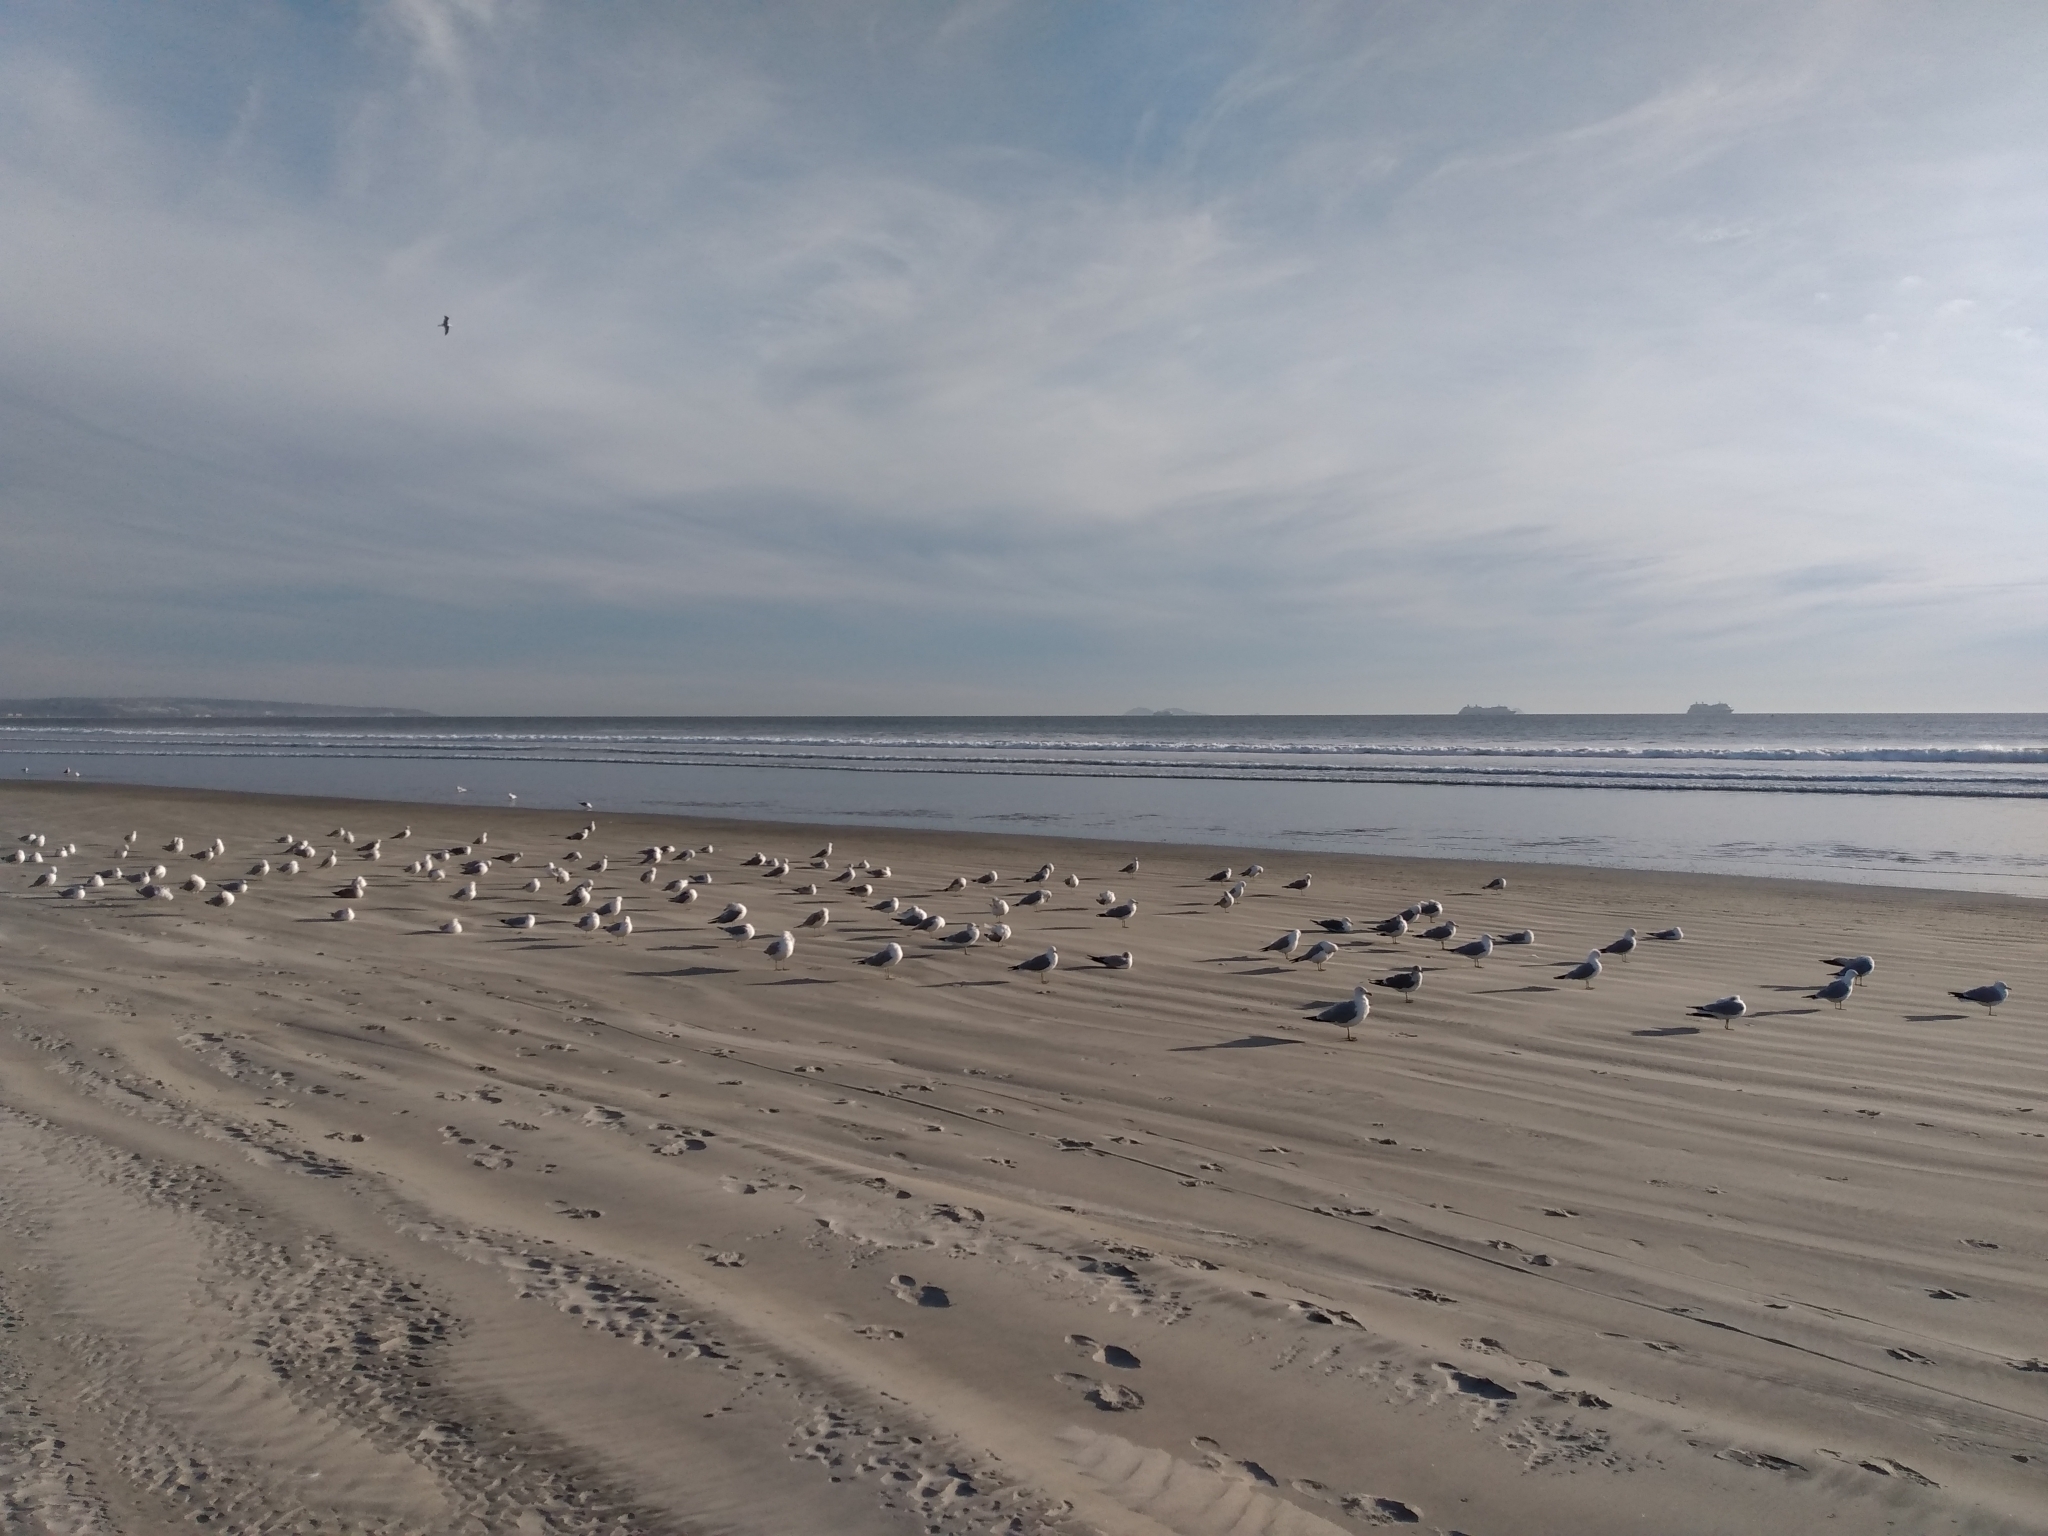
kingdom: Animalia
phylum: Chordata
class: Aves
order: Charadriiformes
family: Laridae
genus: Larus
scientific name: Larus californicus
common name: California gull
